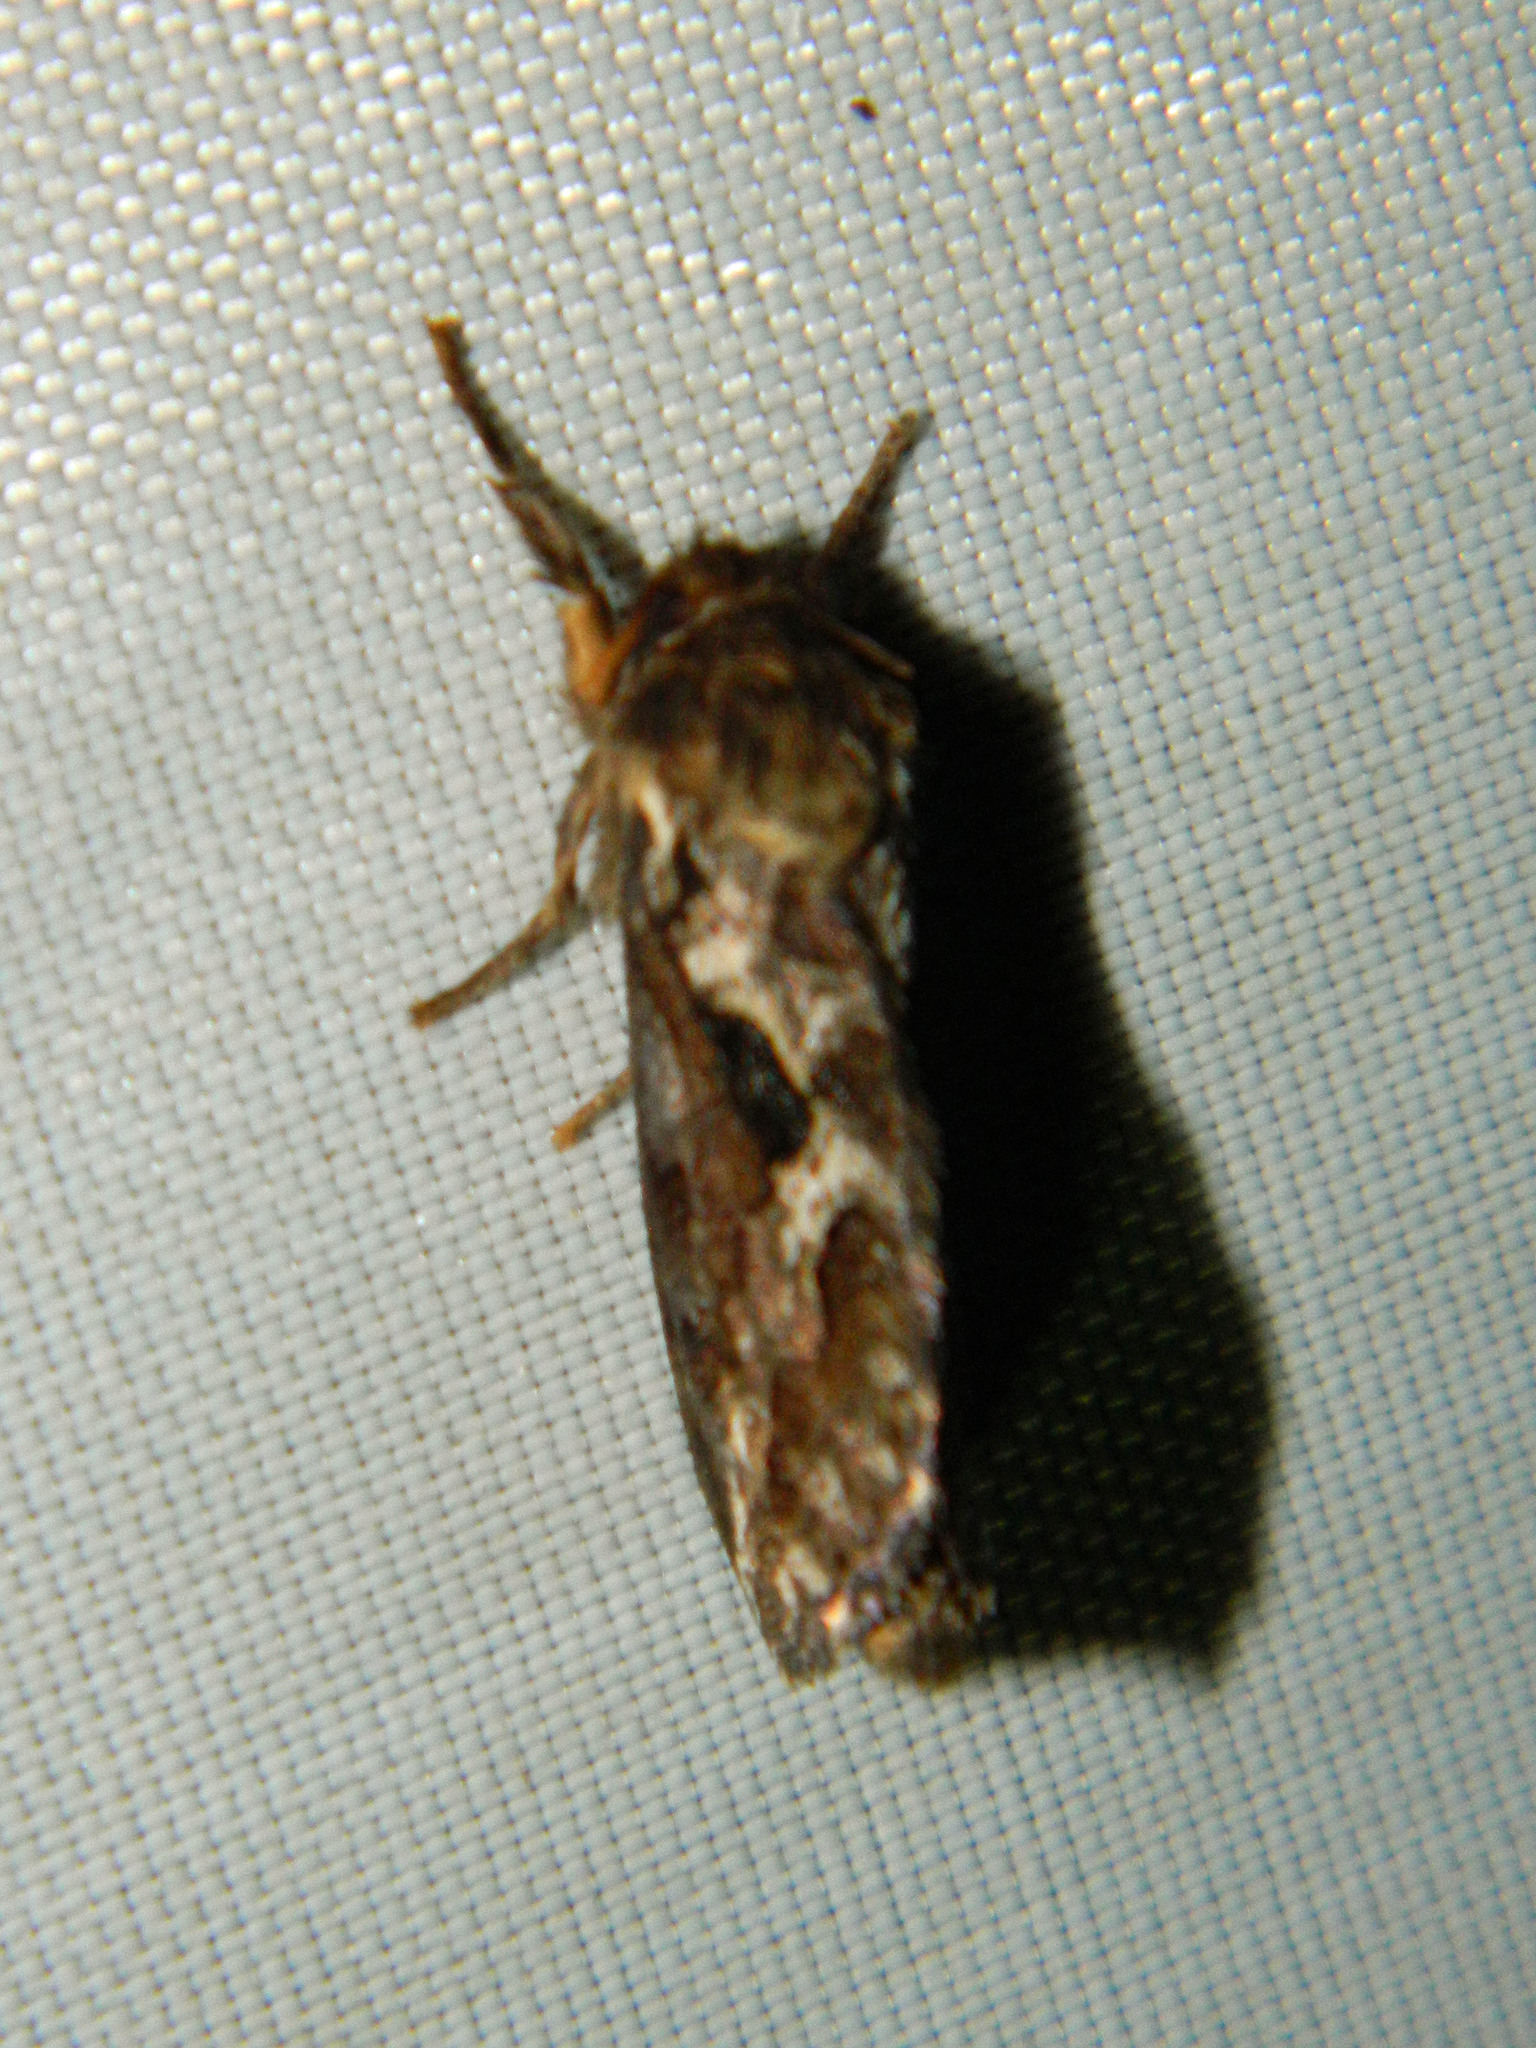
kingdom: Animalia
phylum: Arthropoda
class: Insecta
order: Lepidoptera
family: Hepialidae
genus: Korscheltellus
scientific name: Korscheltellus gracilis
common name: Conifer swift moth
